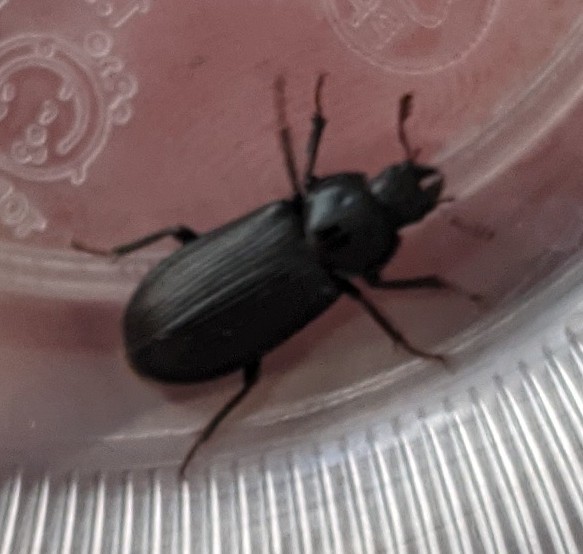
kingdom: Animalia
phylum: Arthropoda
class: Insecta
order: Coleoptera
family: Lucanidae
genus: Platycerus
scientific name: Platycerus quercus
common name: Oak stag beetle
